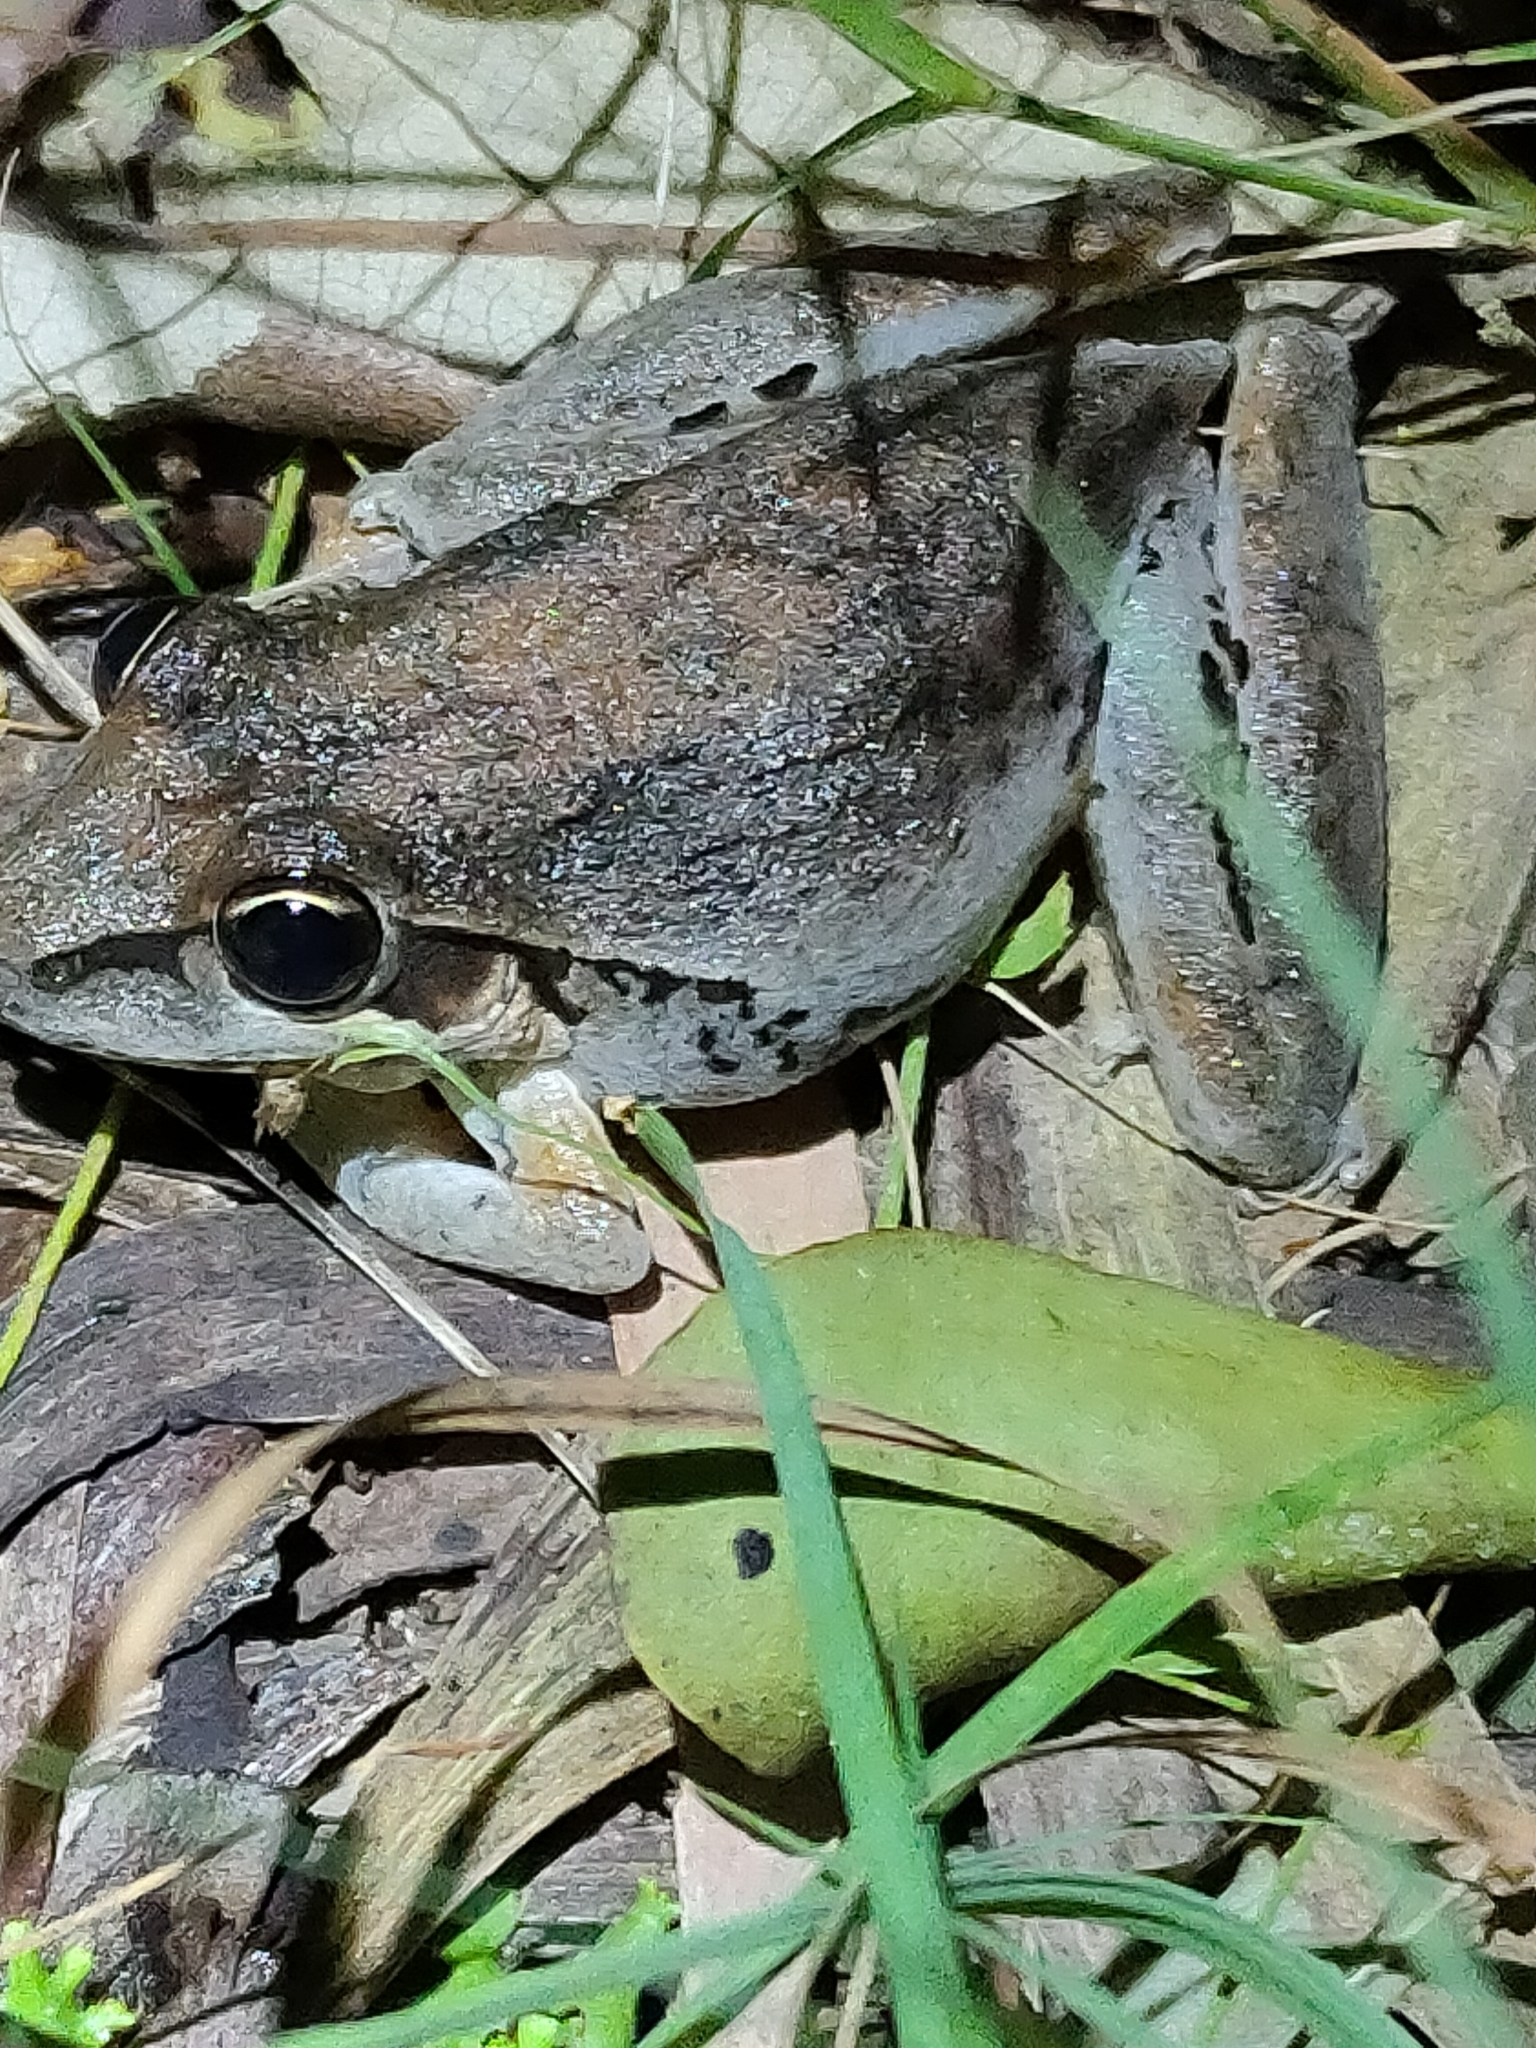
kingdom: Animalia
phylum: Chordata
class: Amphibia
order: Anura
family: Pelodryadidae
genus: Litoria
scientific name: Litoria latopalmata
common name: Broad-palmed rocket frog
